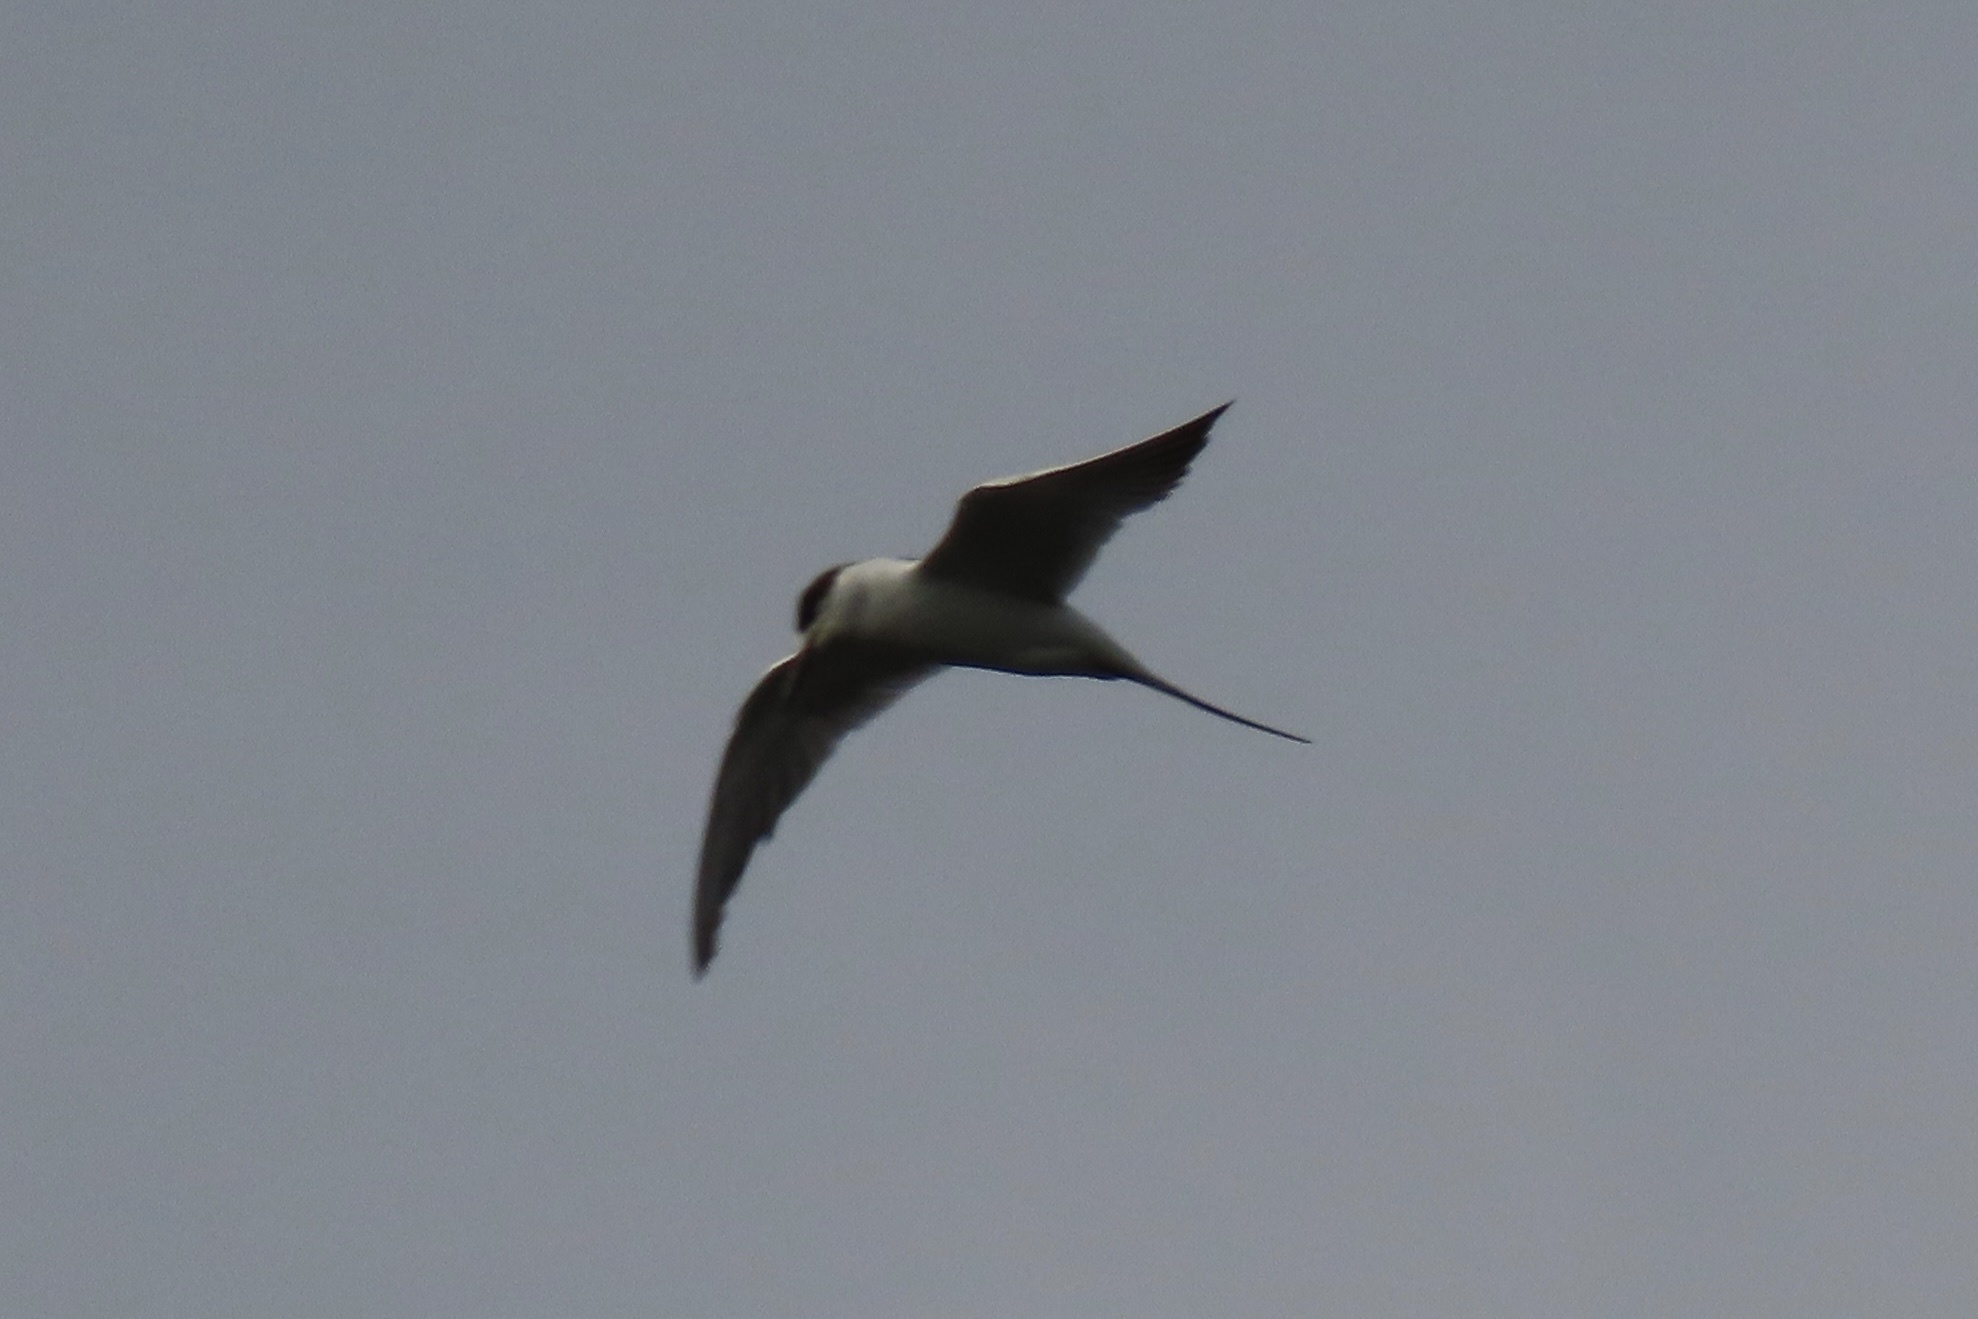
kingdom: Animalia
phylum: Chordata
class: Aves
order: Charadriiformes
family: Laridae
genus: Sterna
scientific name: Sterna forsteri
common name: Forster's tern
